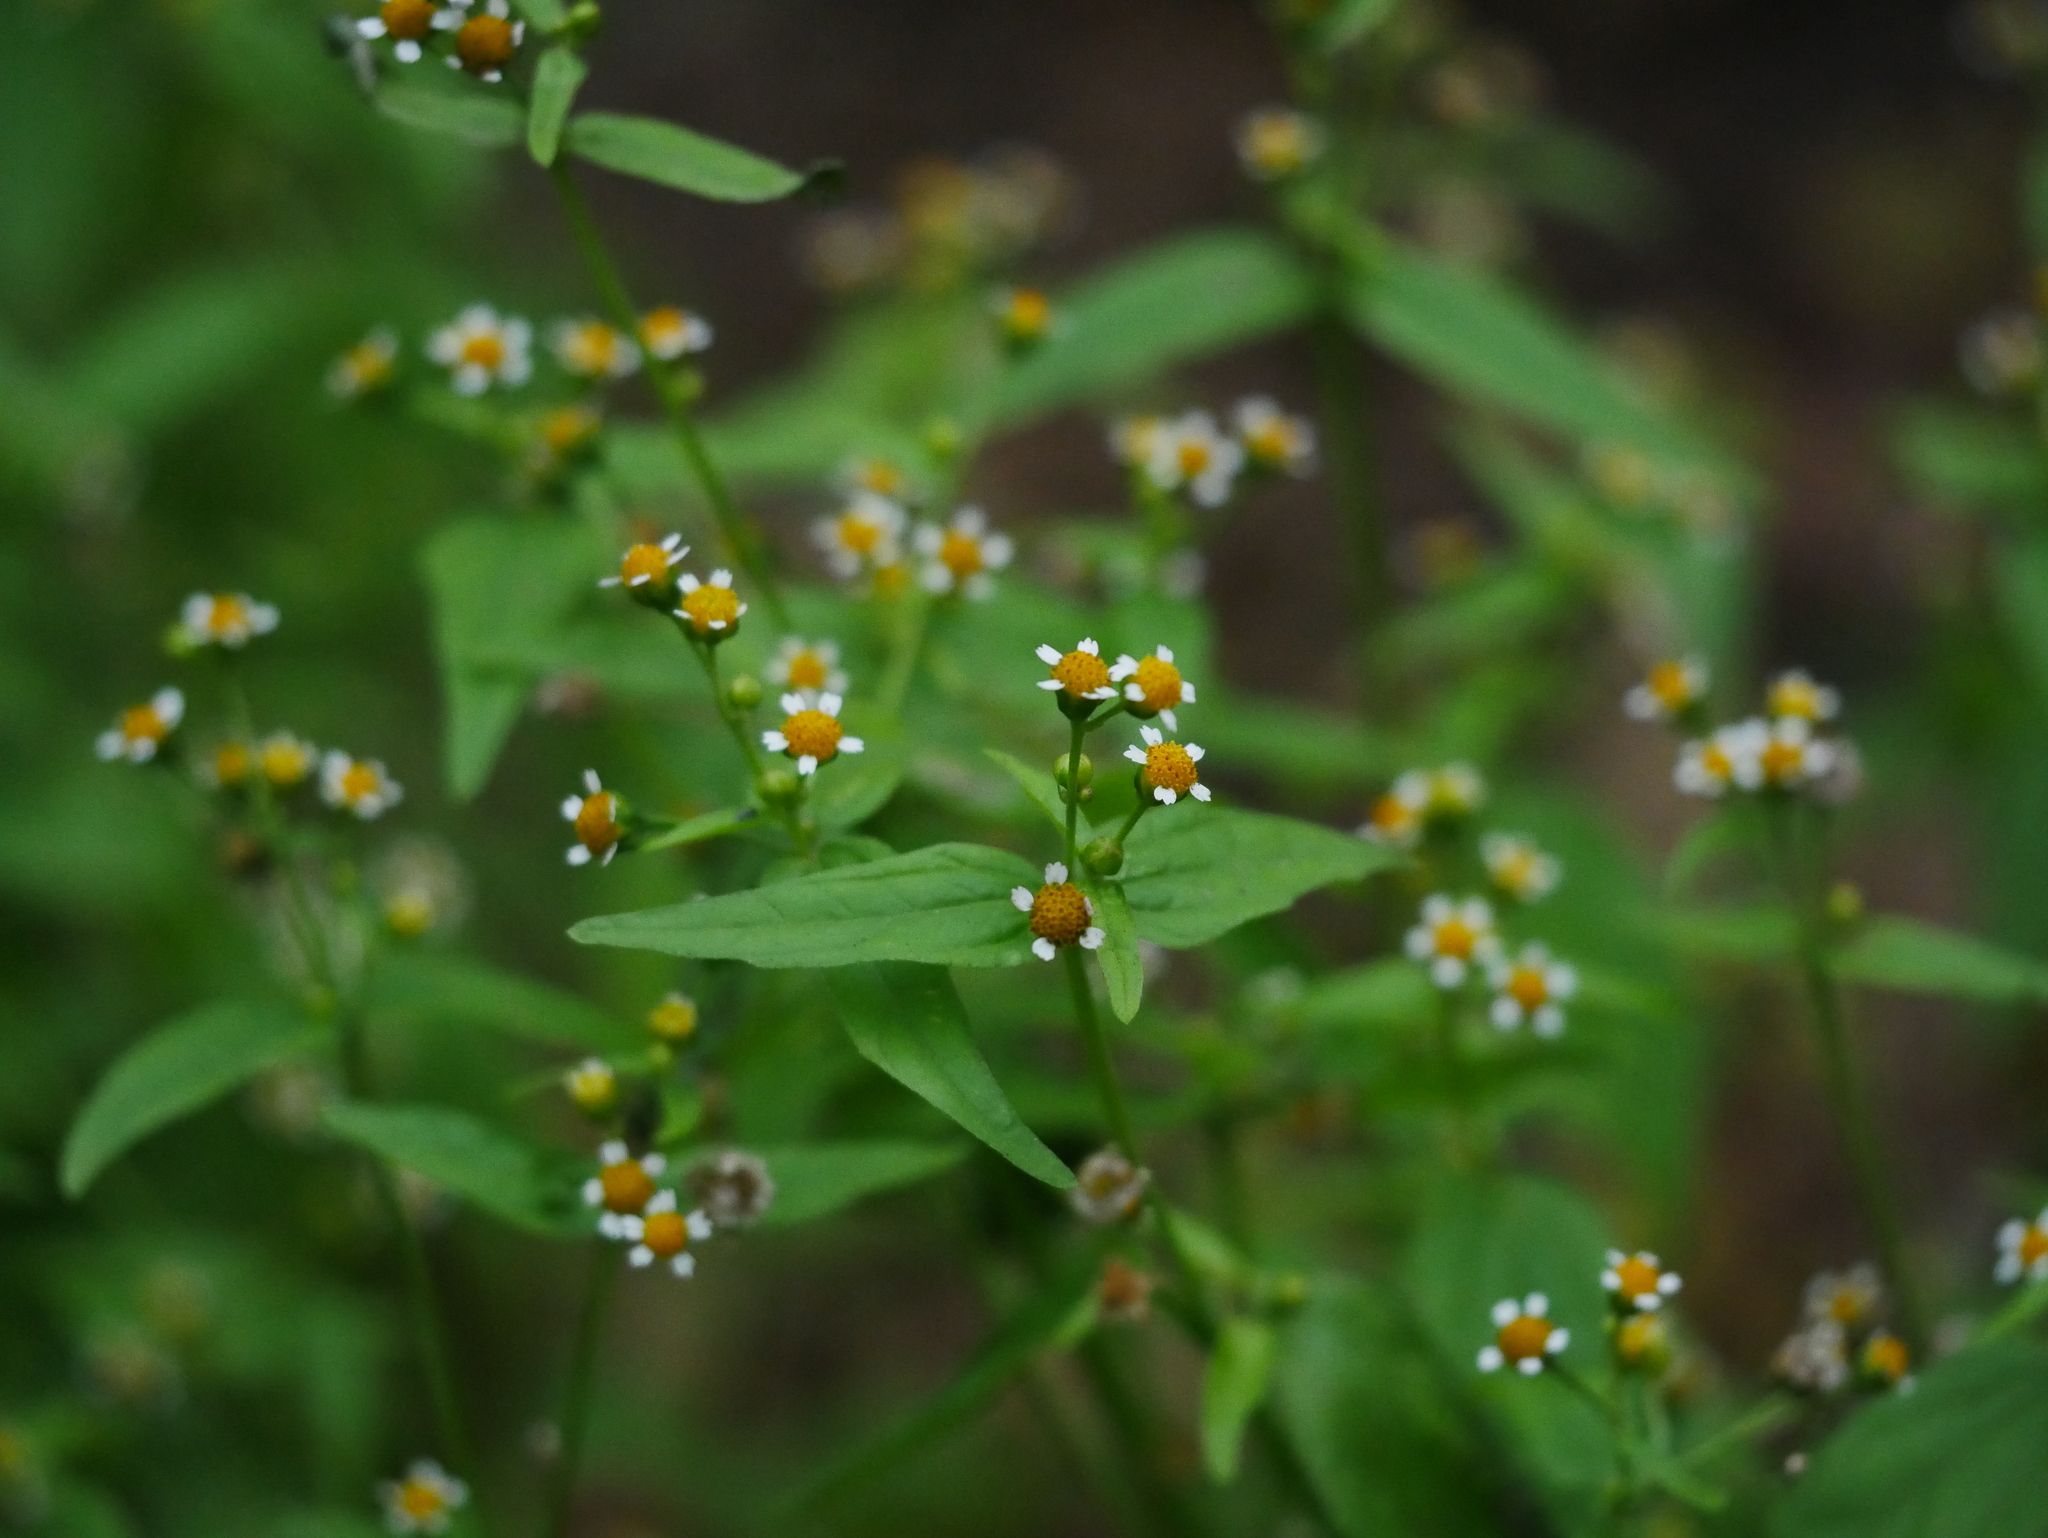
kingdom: Plantae
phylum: Tracheophyta
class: Magnoliopsida
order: Asterales
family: Asteraceae
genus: Galinsoga
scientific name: Galinsoga parviflora
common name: Gallant soldier
